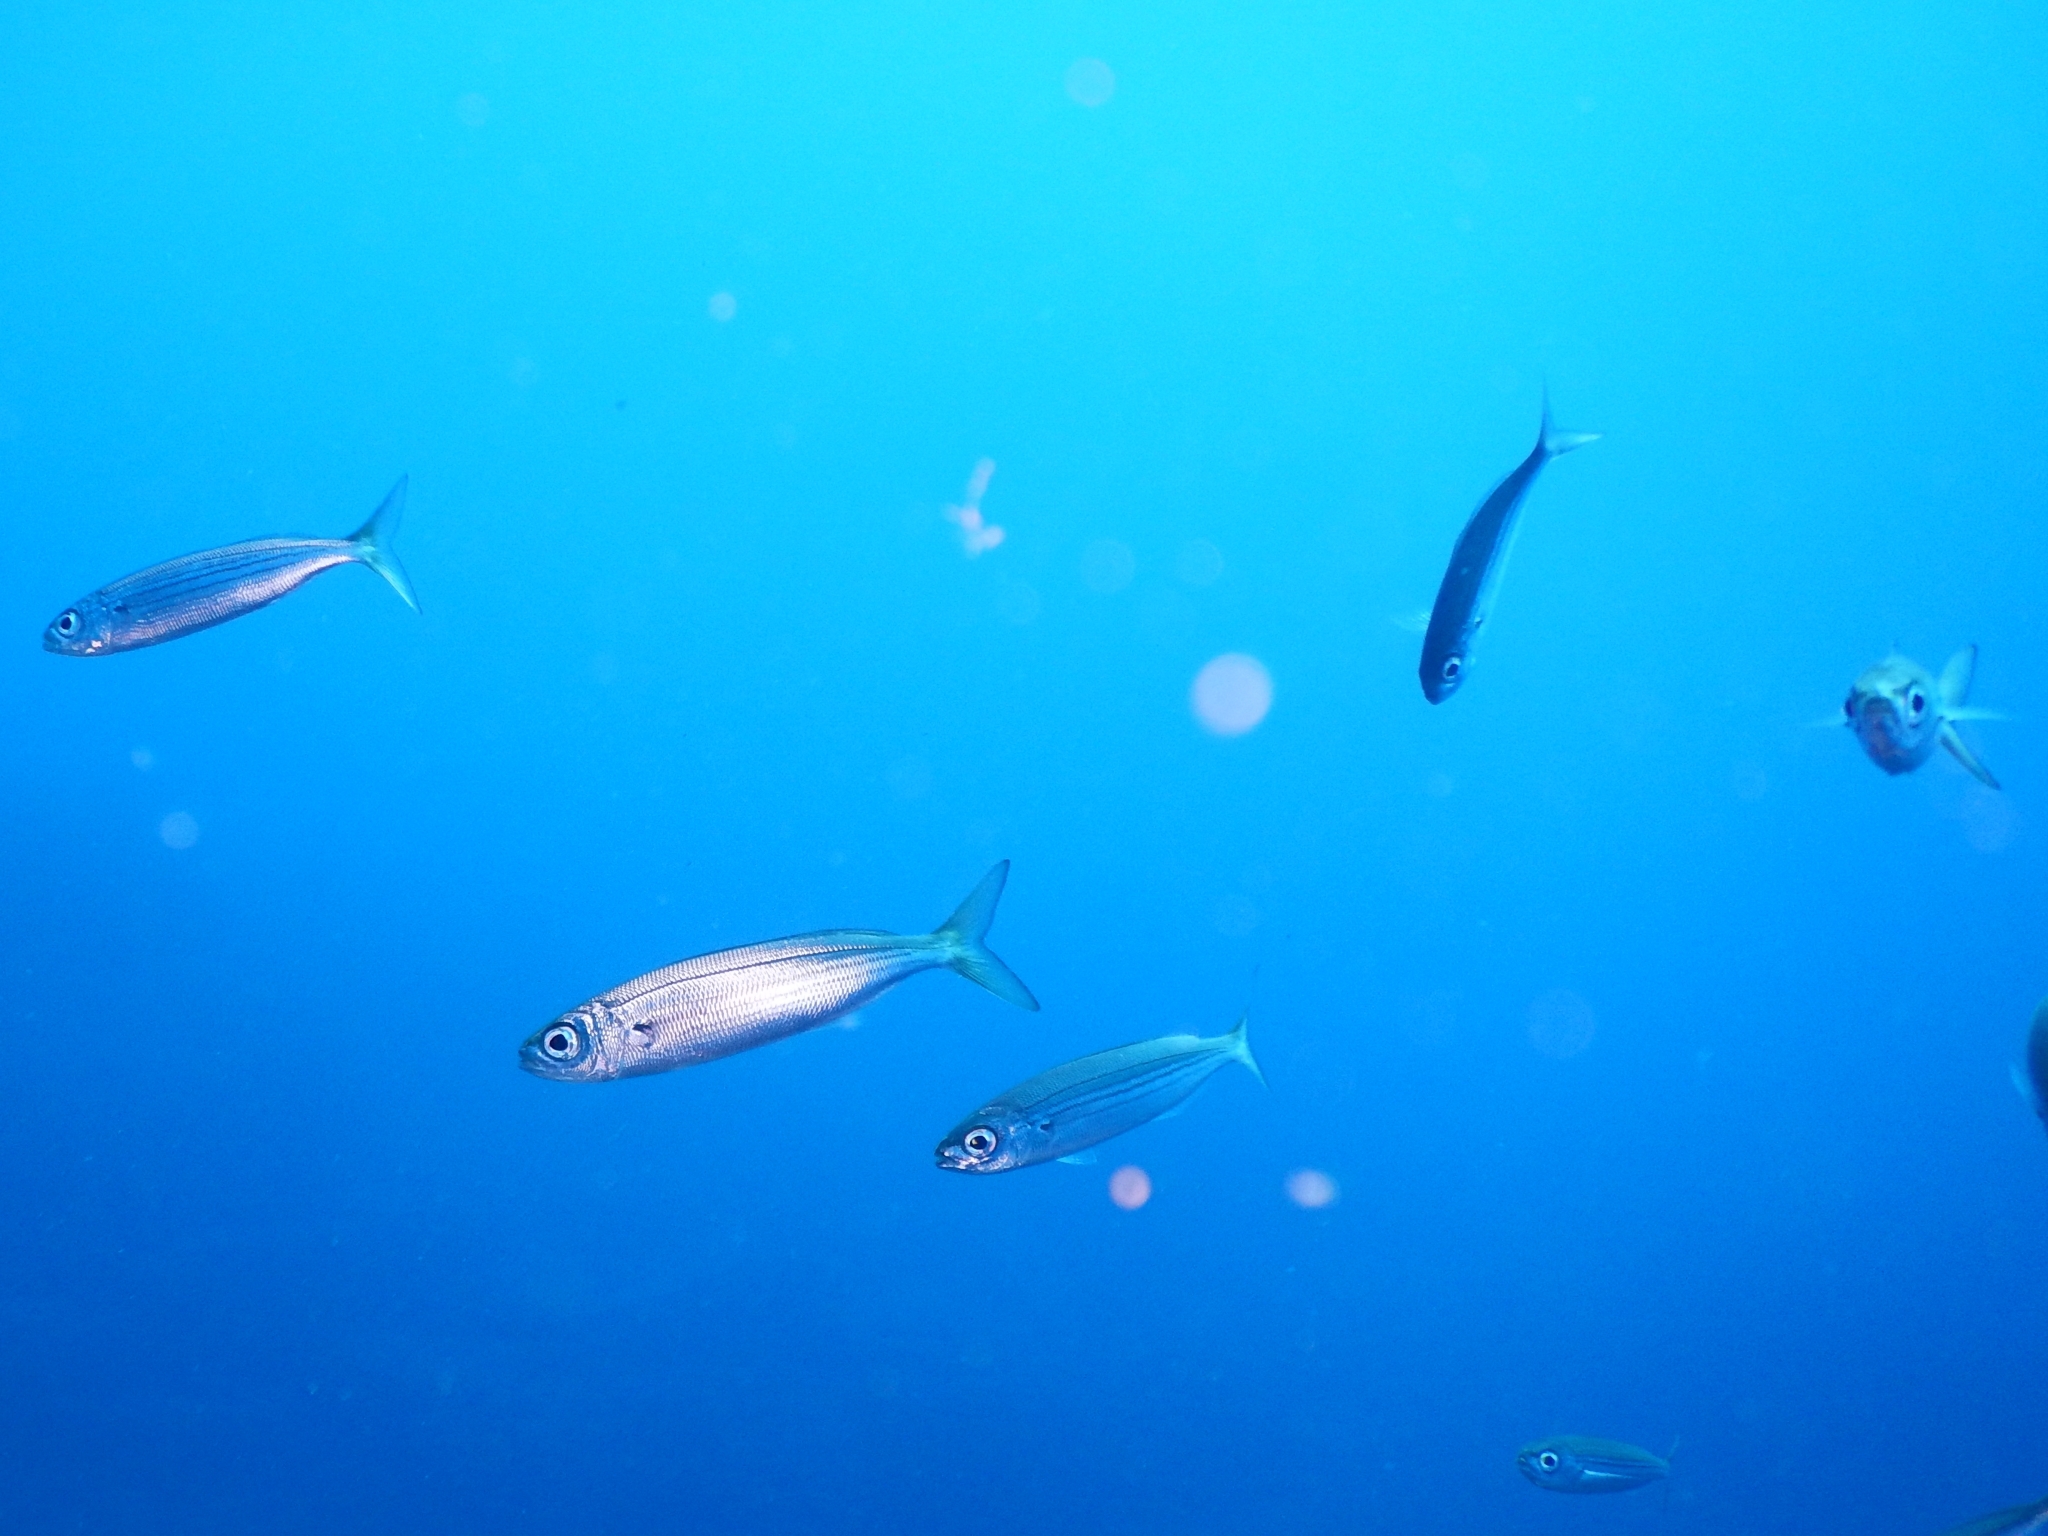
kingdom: Animalia
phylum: Chordata
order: Perciformes
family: Sparidae
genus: Boops
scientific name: Boops boops
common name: Bogue
